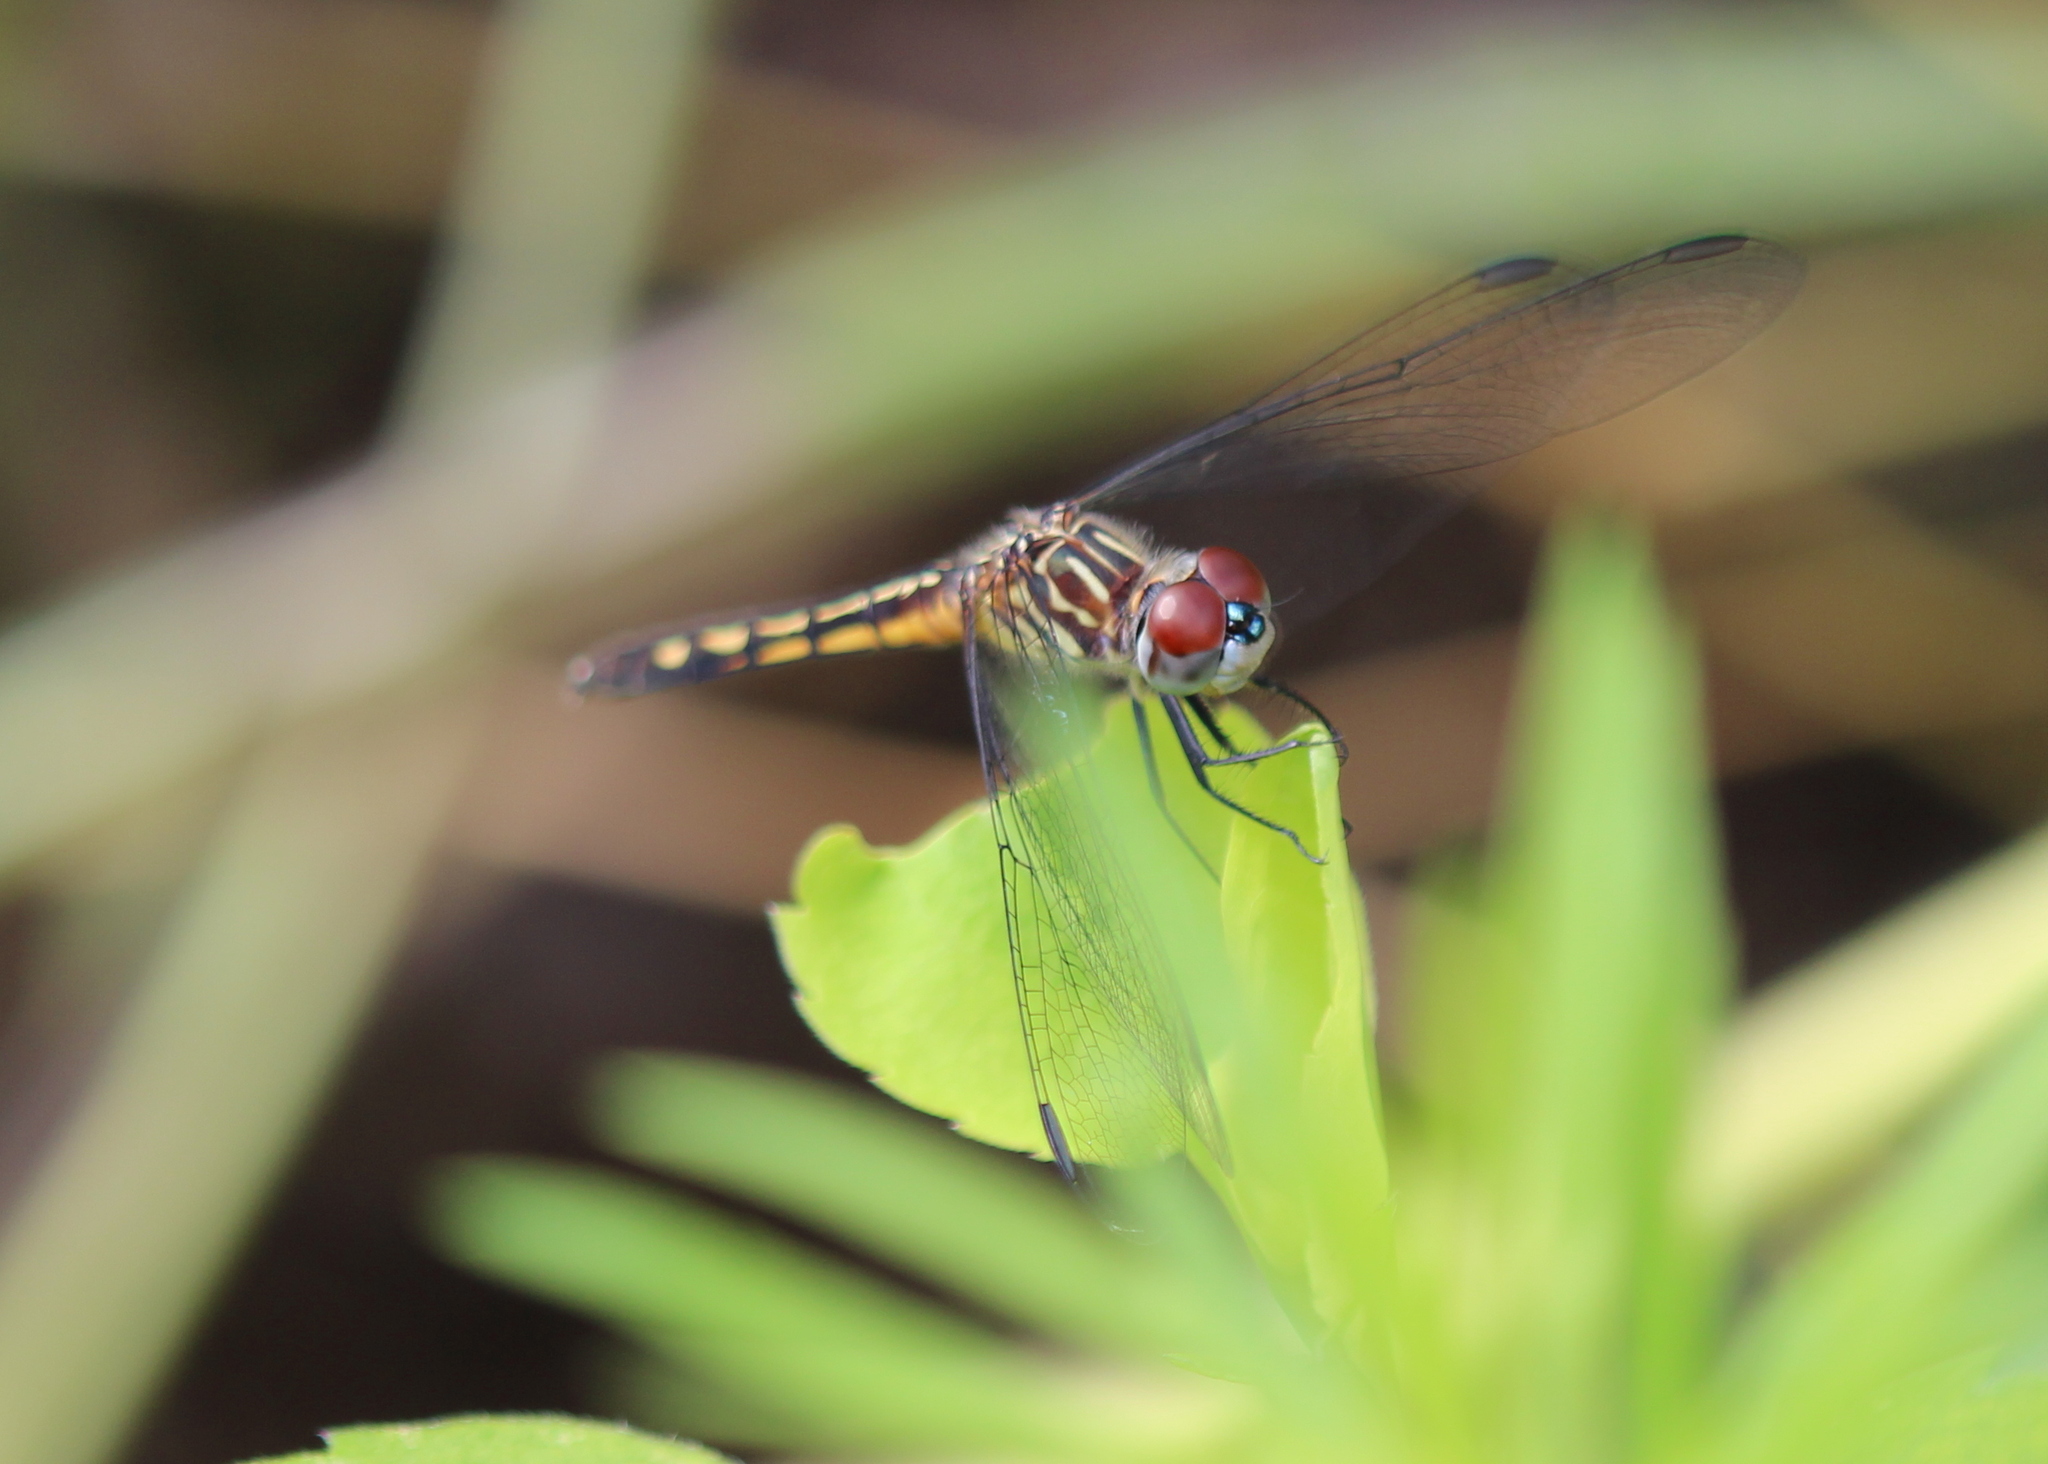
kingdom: Animalia
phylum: Arthropoda
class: Insecta
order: Odonata
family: Libellulidae
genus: Pachydiplax
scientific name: Pachydiplax longipennis
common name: Blue dasher
